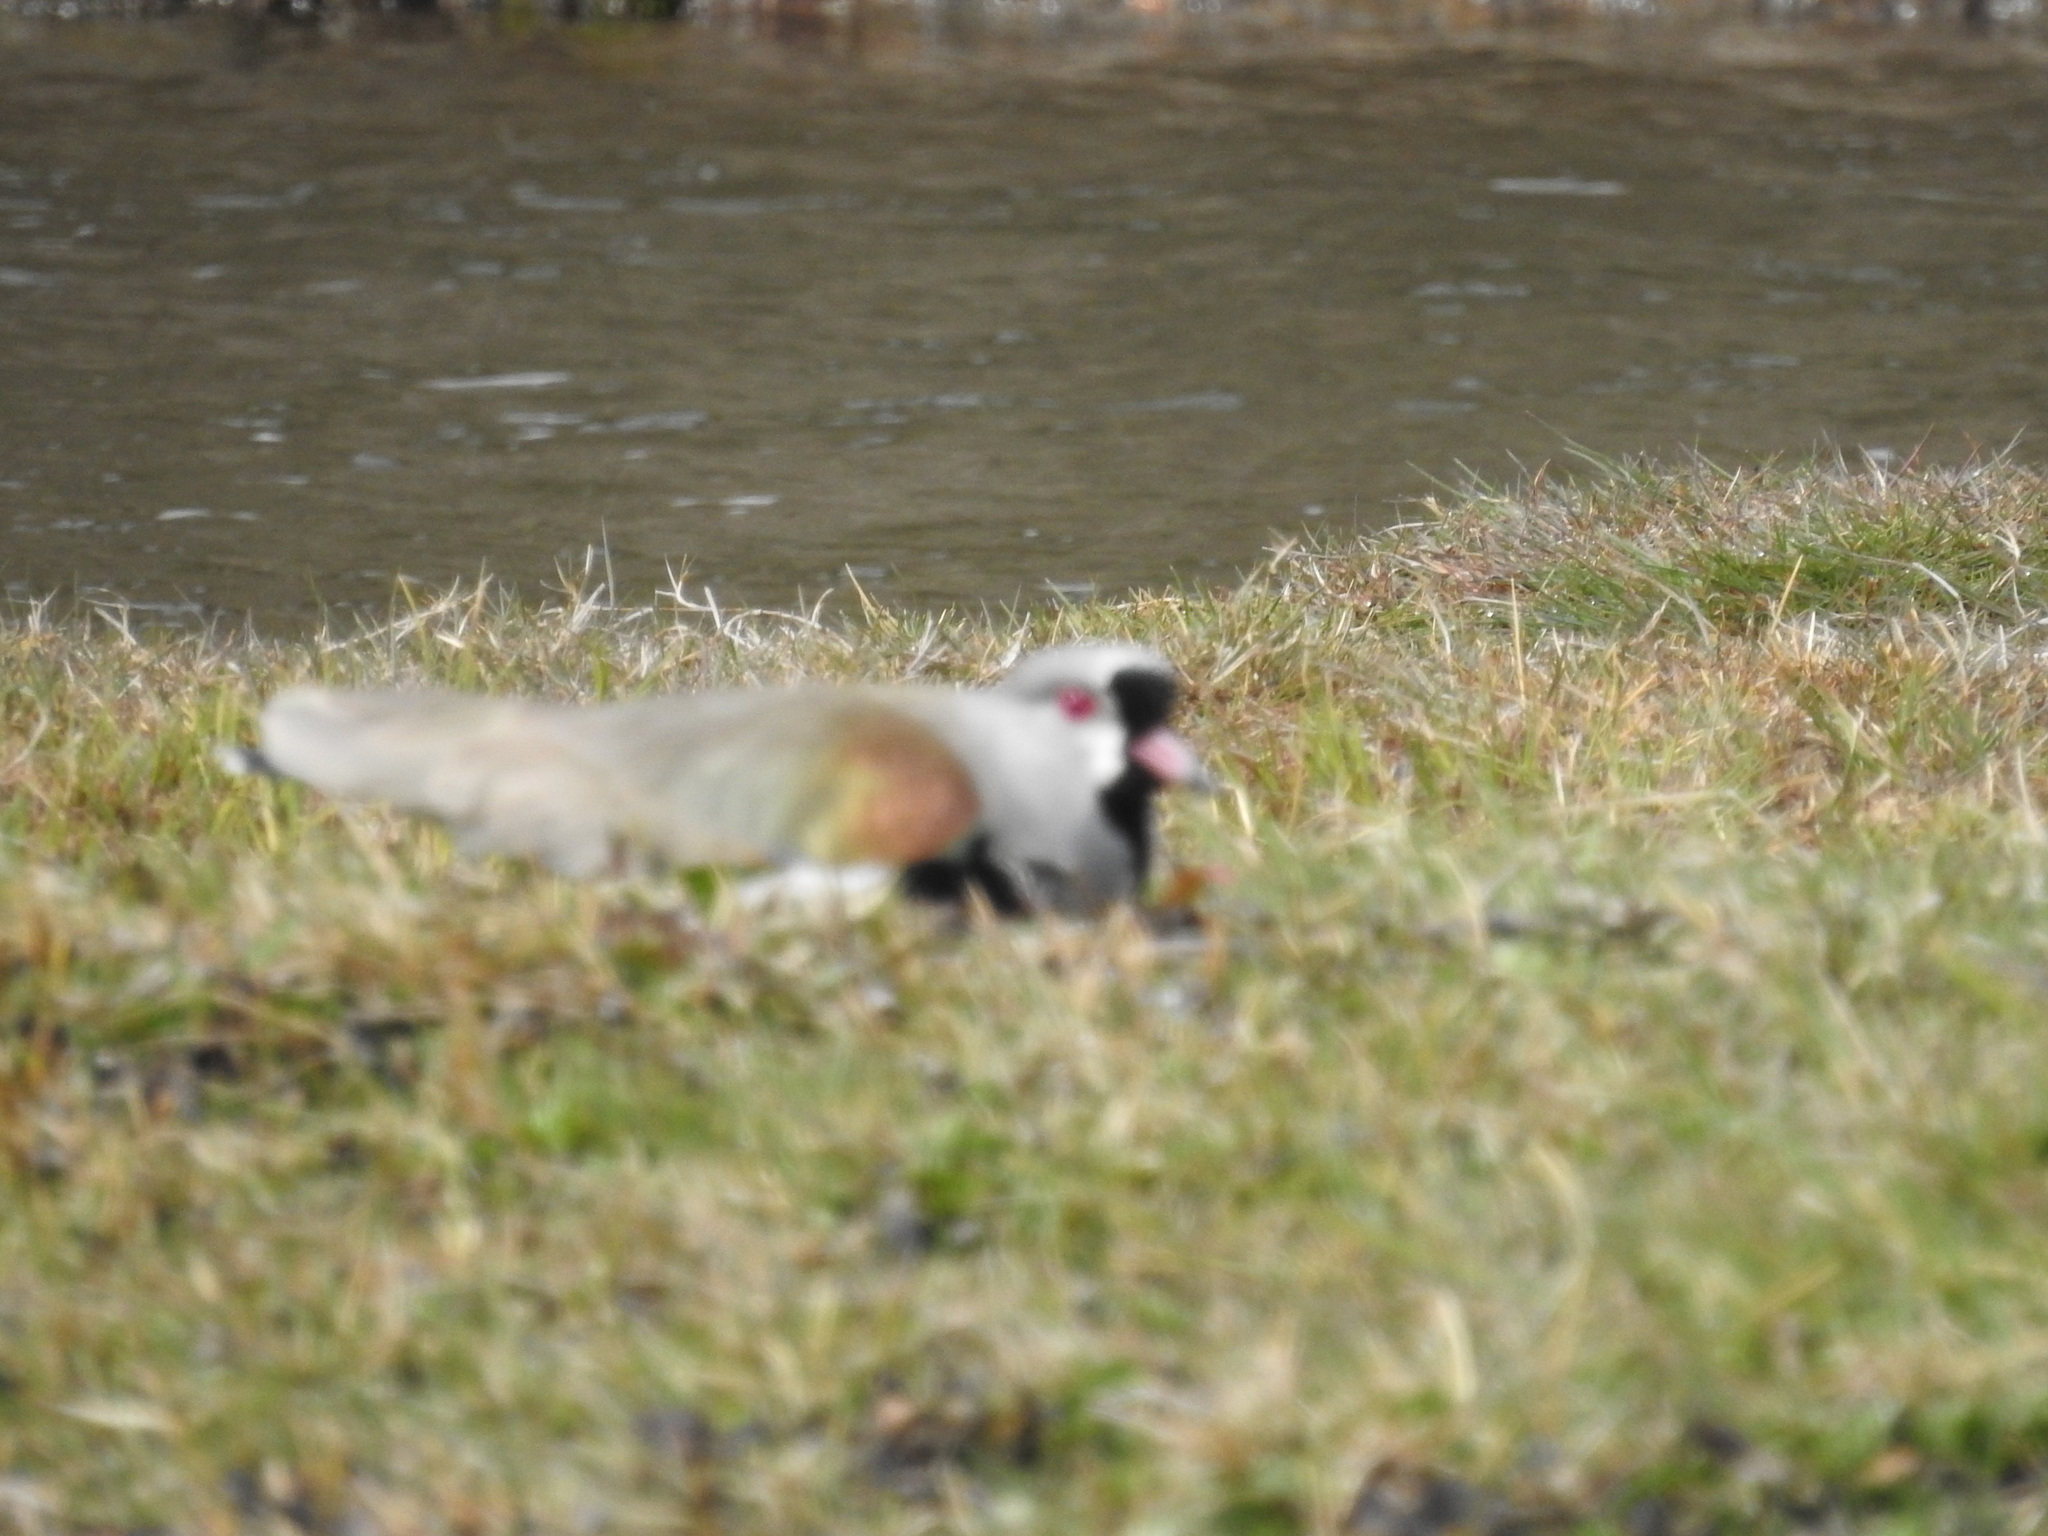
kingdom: Animalia
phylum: Chordata
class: Aves
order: Charadriiformes
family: Charadriidae
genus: Vanellus
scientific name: Vanellus chilensis
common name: Southern lapwing
